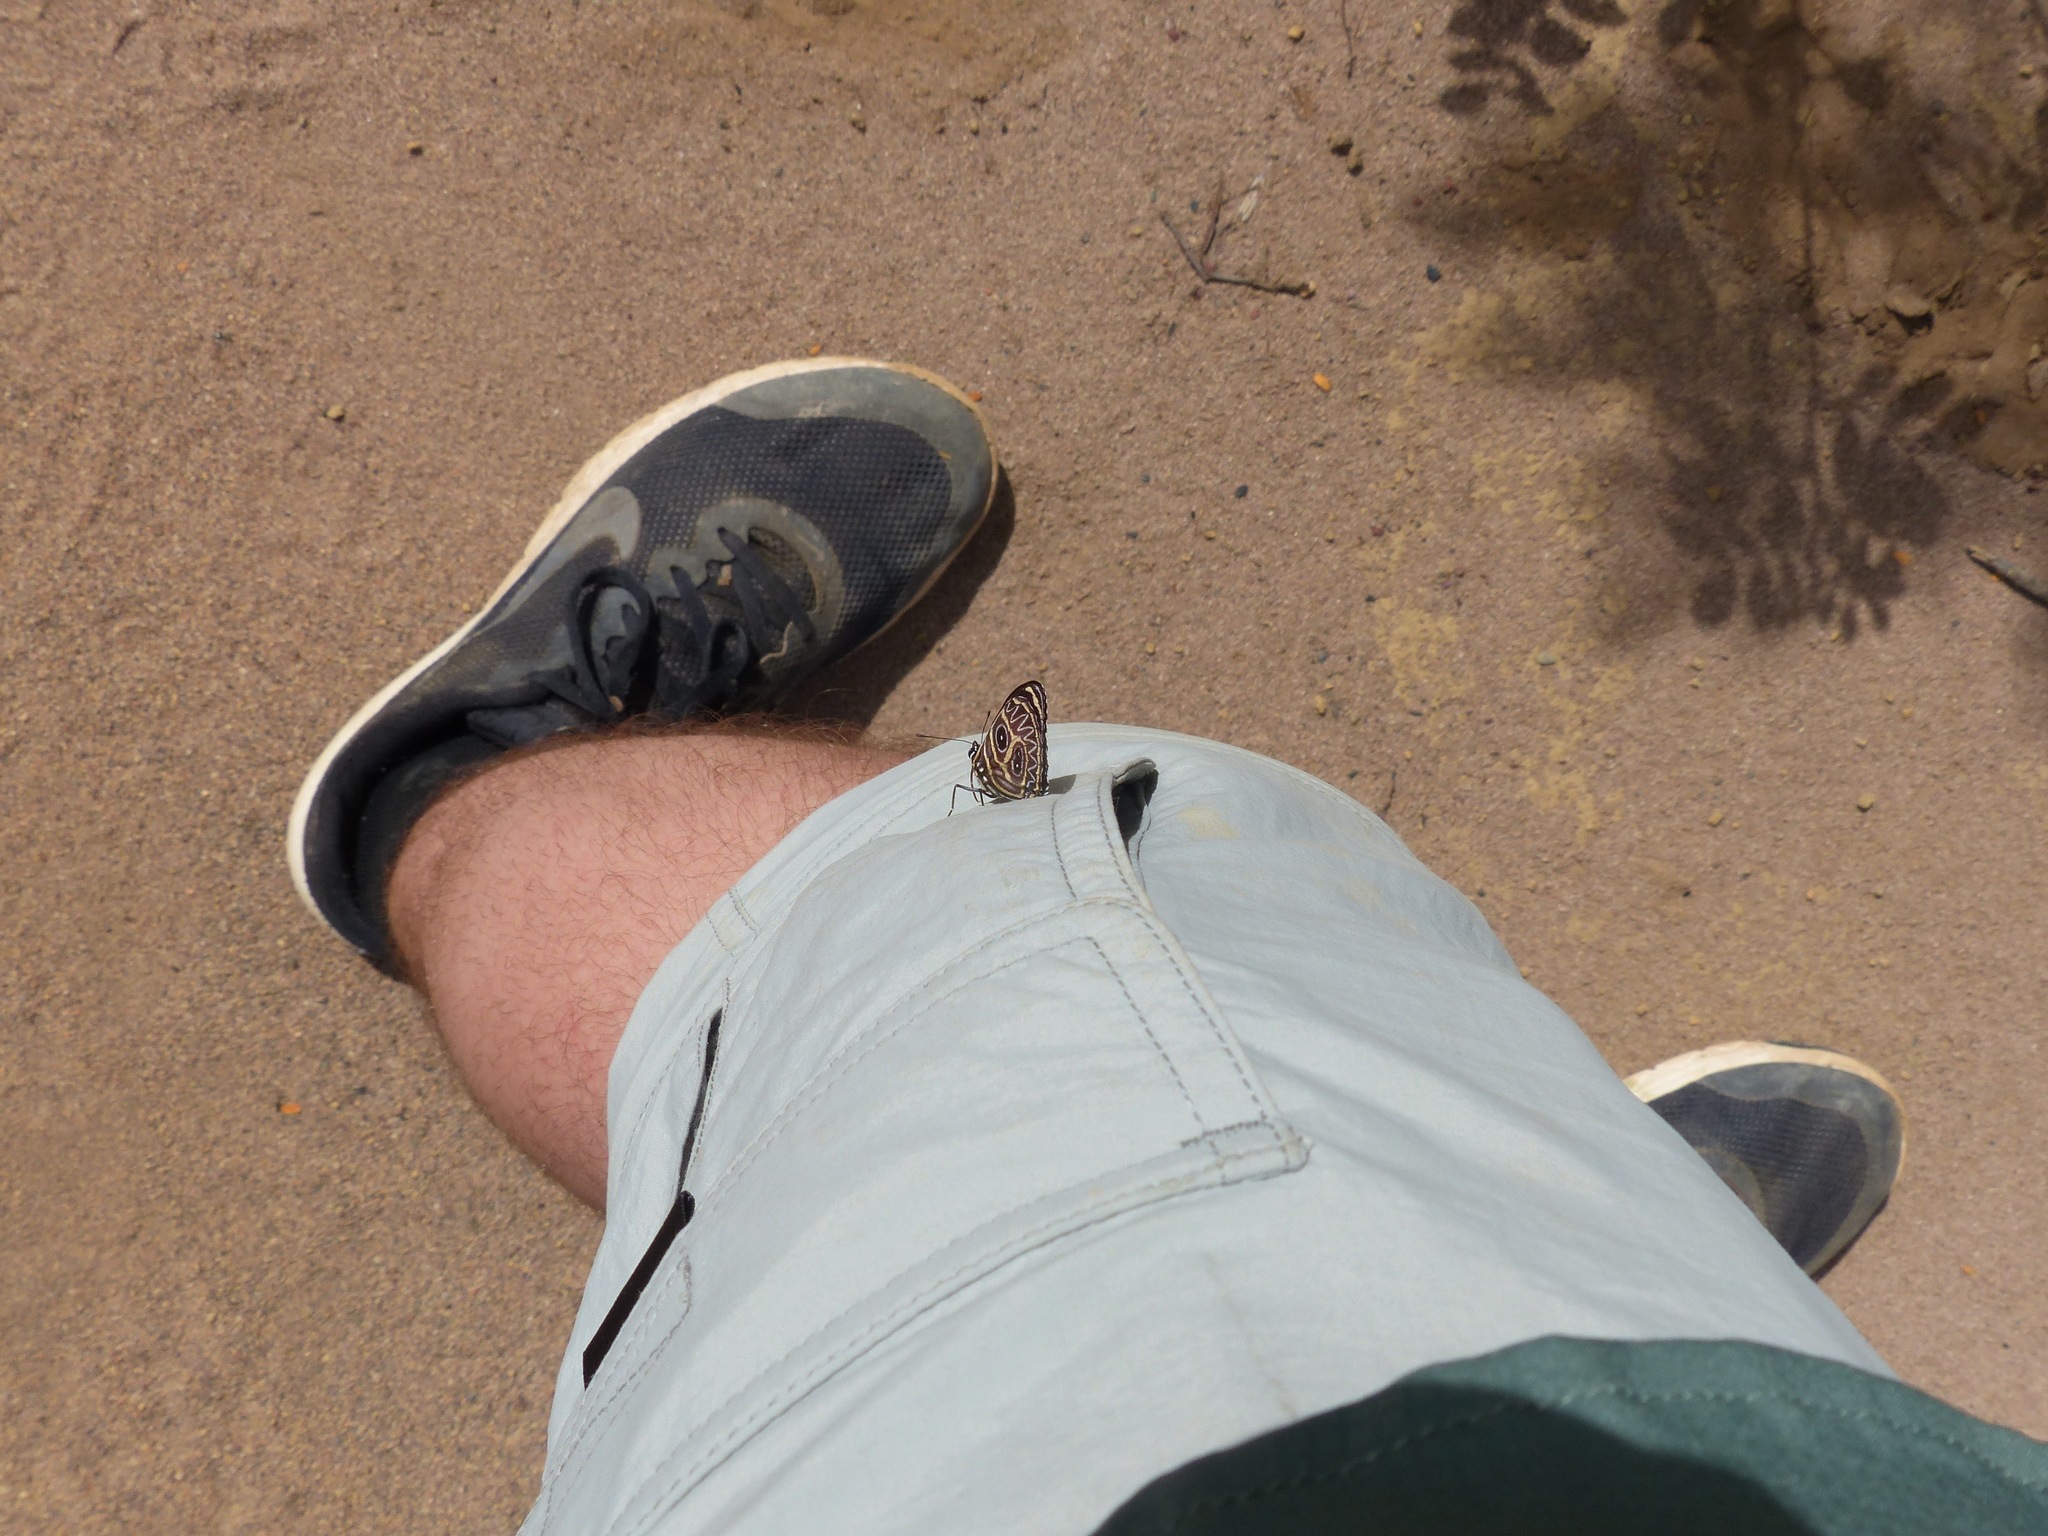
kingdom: Animalia
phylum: Arthropoda
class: Insecta
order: Lepidoptera
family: Nymphalidae
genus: Catagramma
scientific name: Catagramma Callicore sorana
